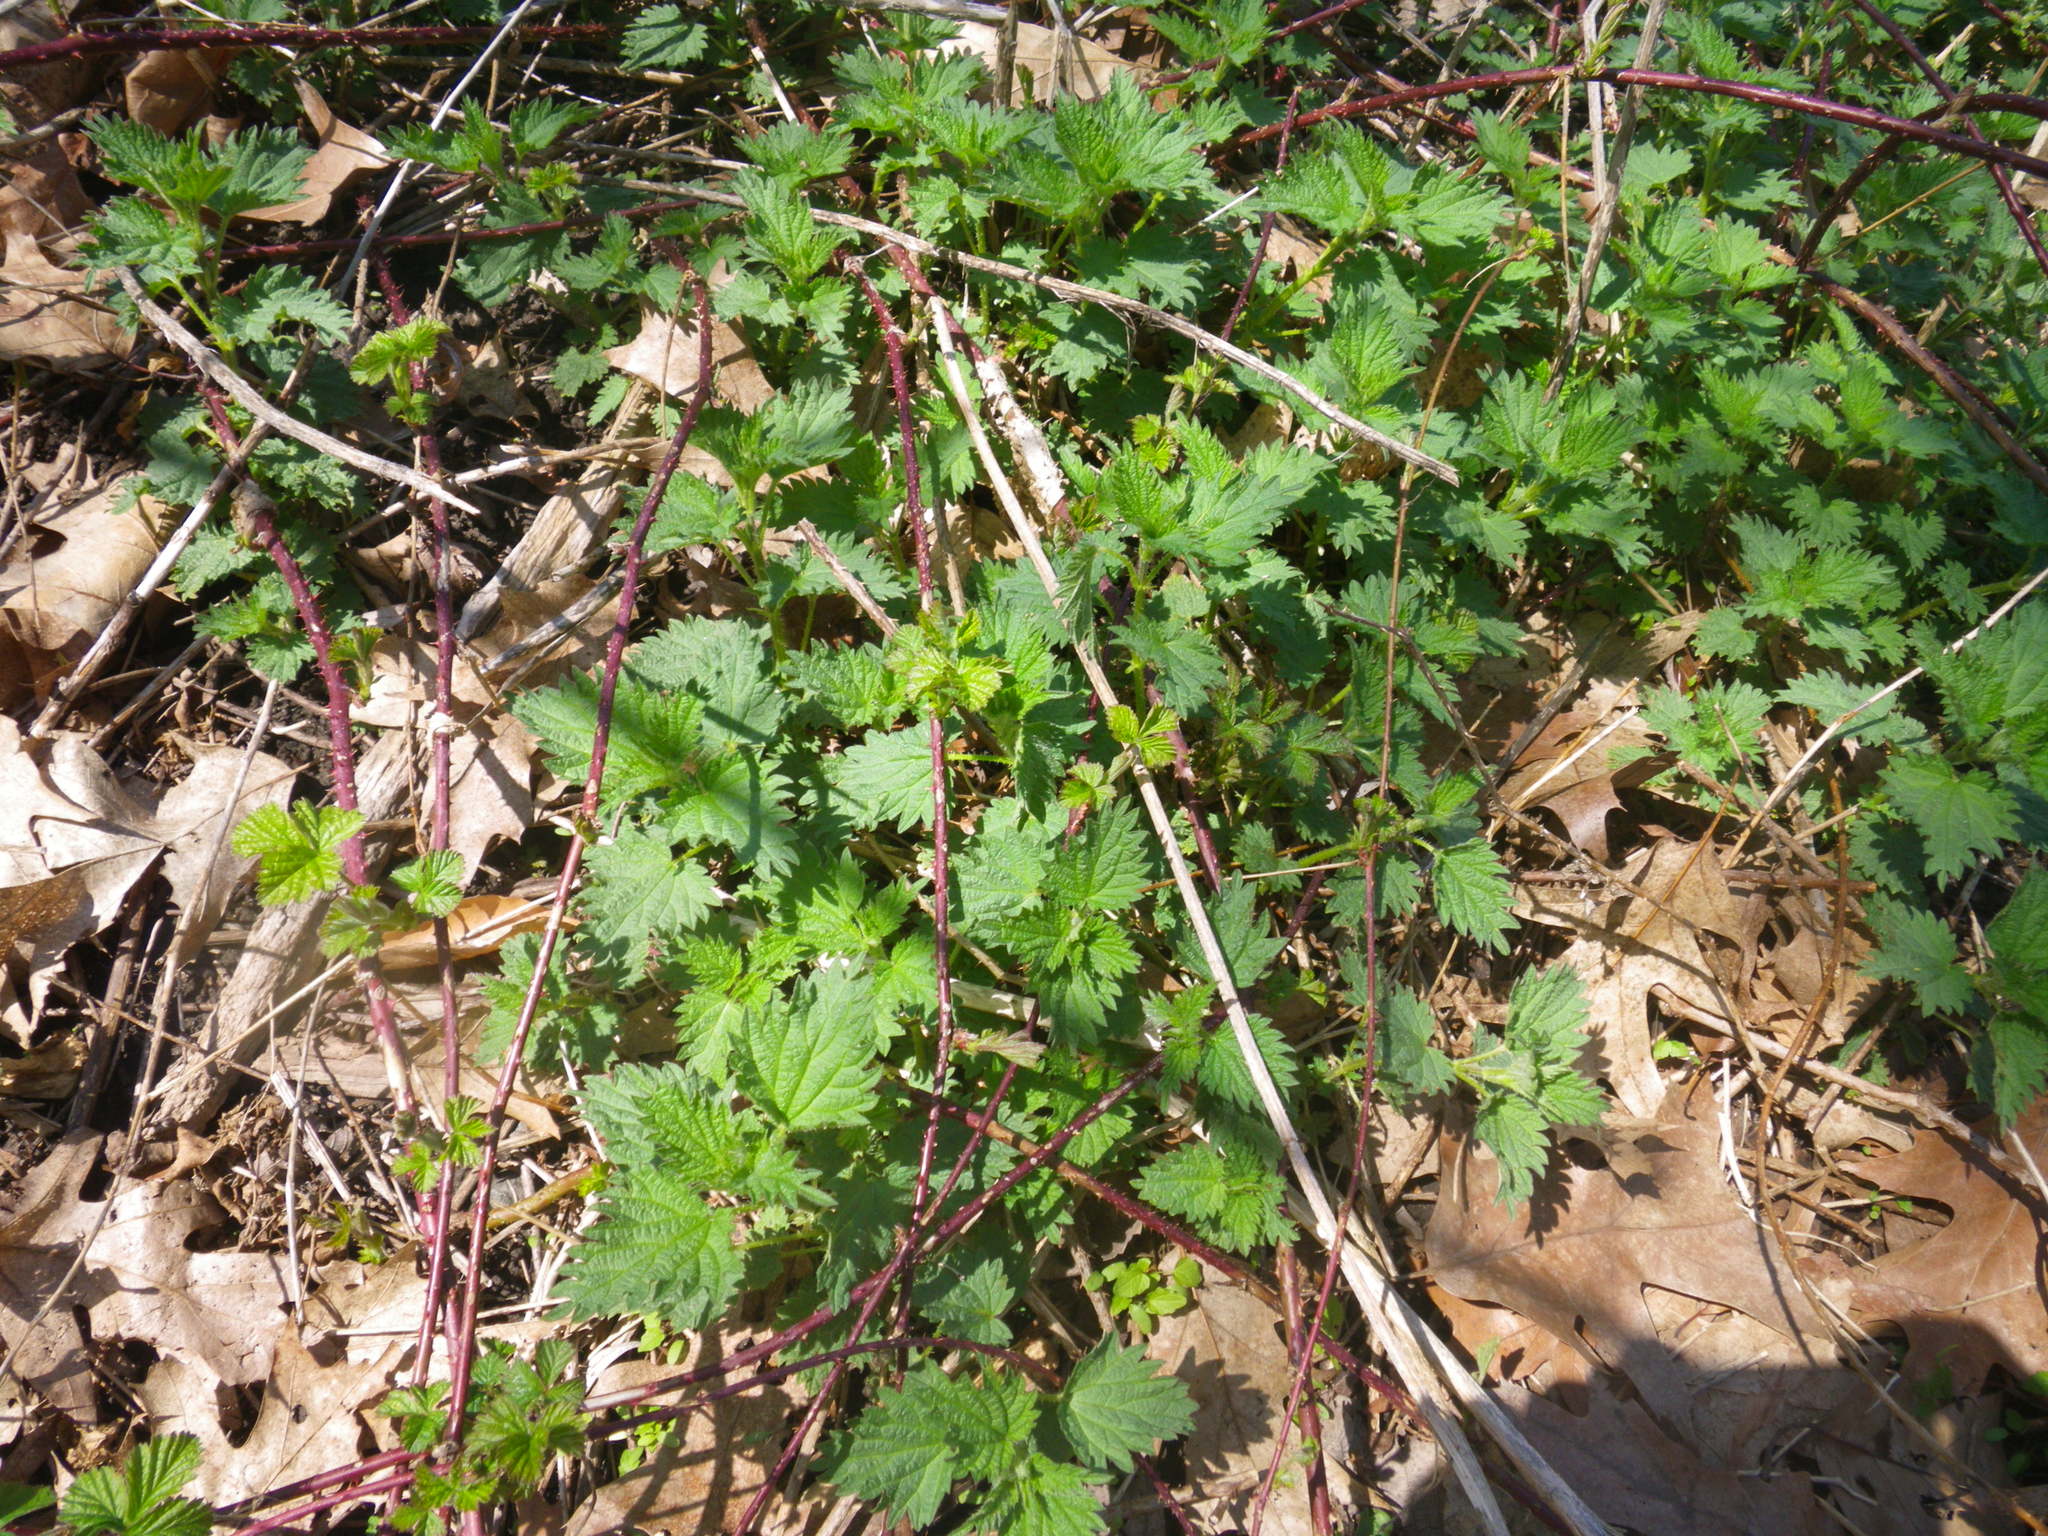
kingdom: Plantae
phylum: Tracheophyta
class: Magnoliopsida
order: Rosales
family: Urticaceae
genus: Urtica
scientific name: Urtica dioica
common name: Common nettle
